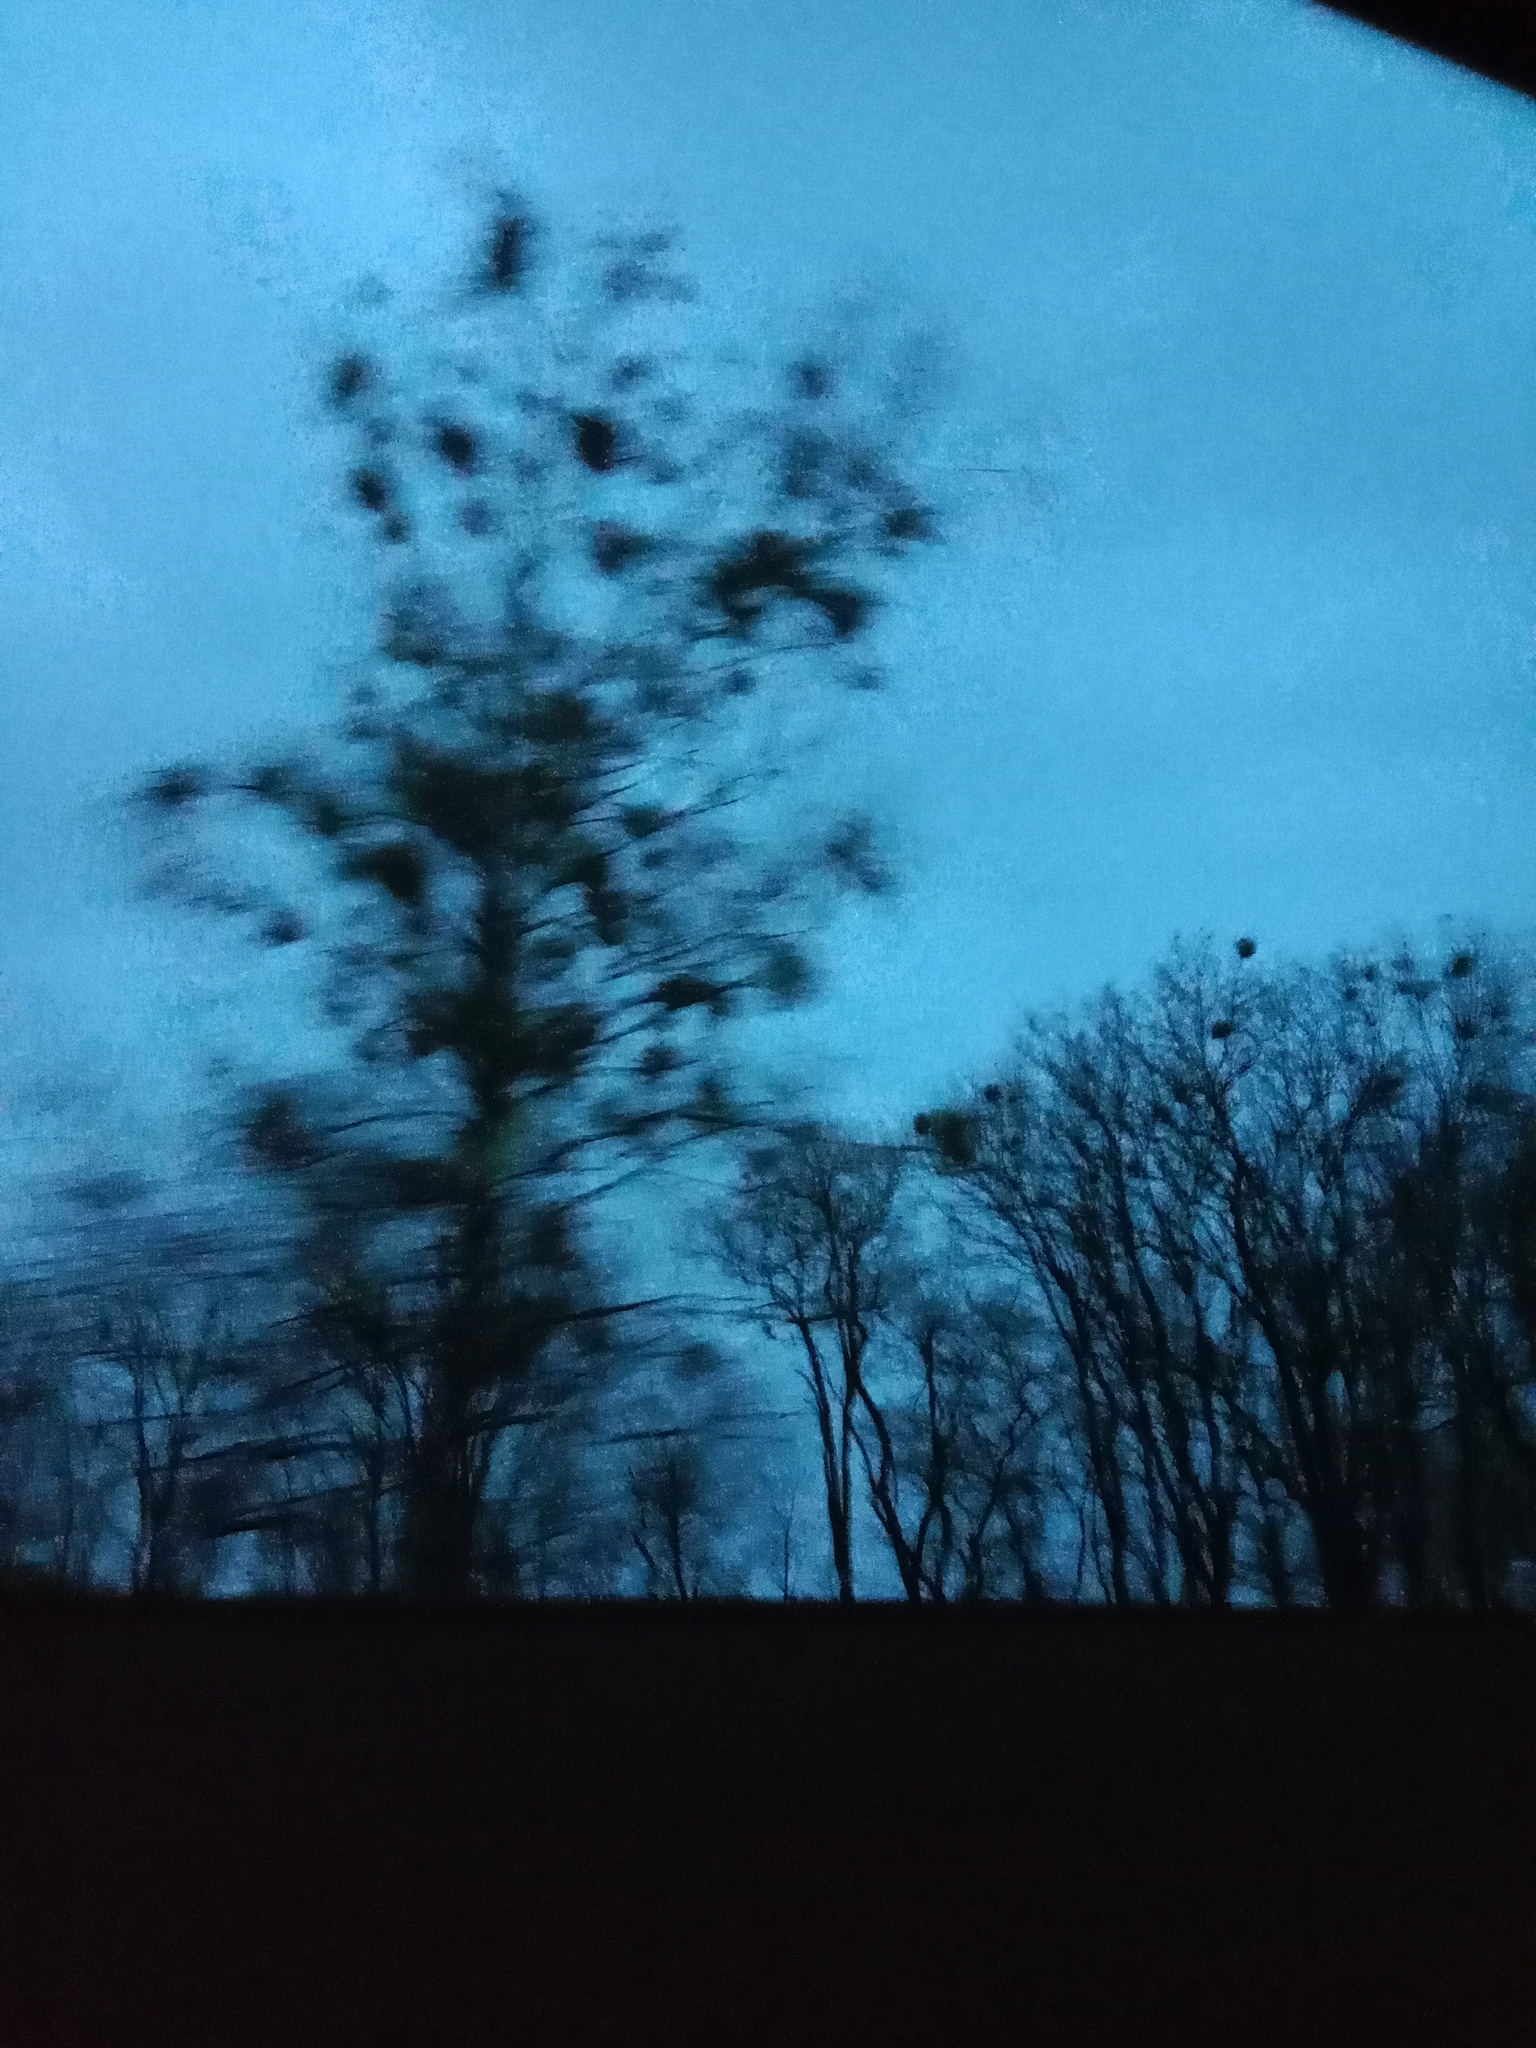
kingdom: Plantae
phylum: Tracheophyta
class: Magnoliopsida
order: Santalales
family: Viscaceae
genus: Viscum
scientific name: Viscum album
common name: Mistletoe
